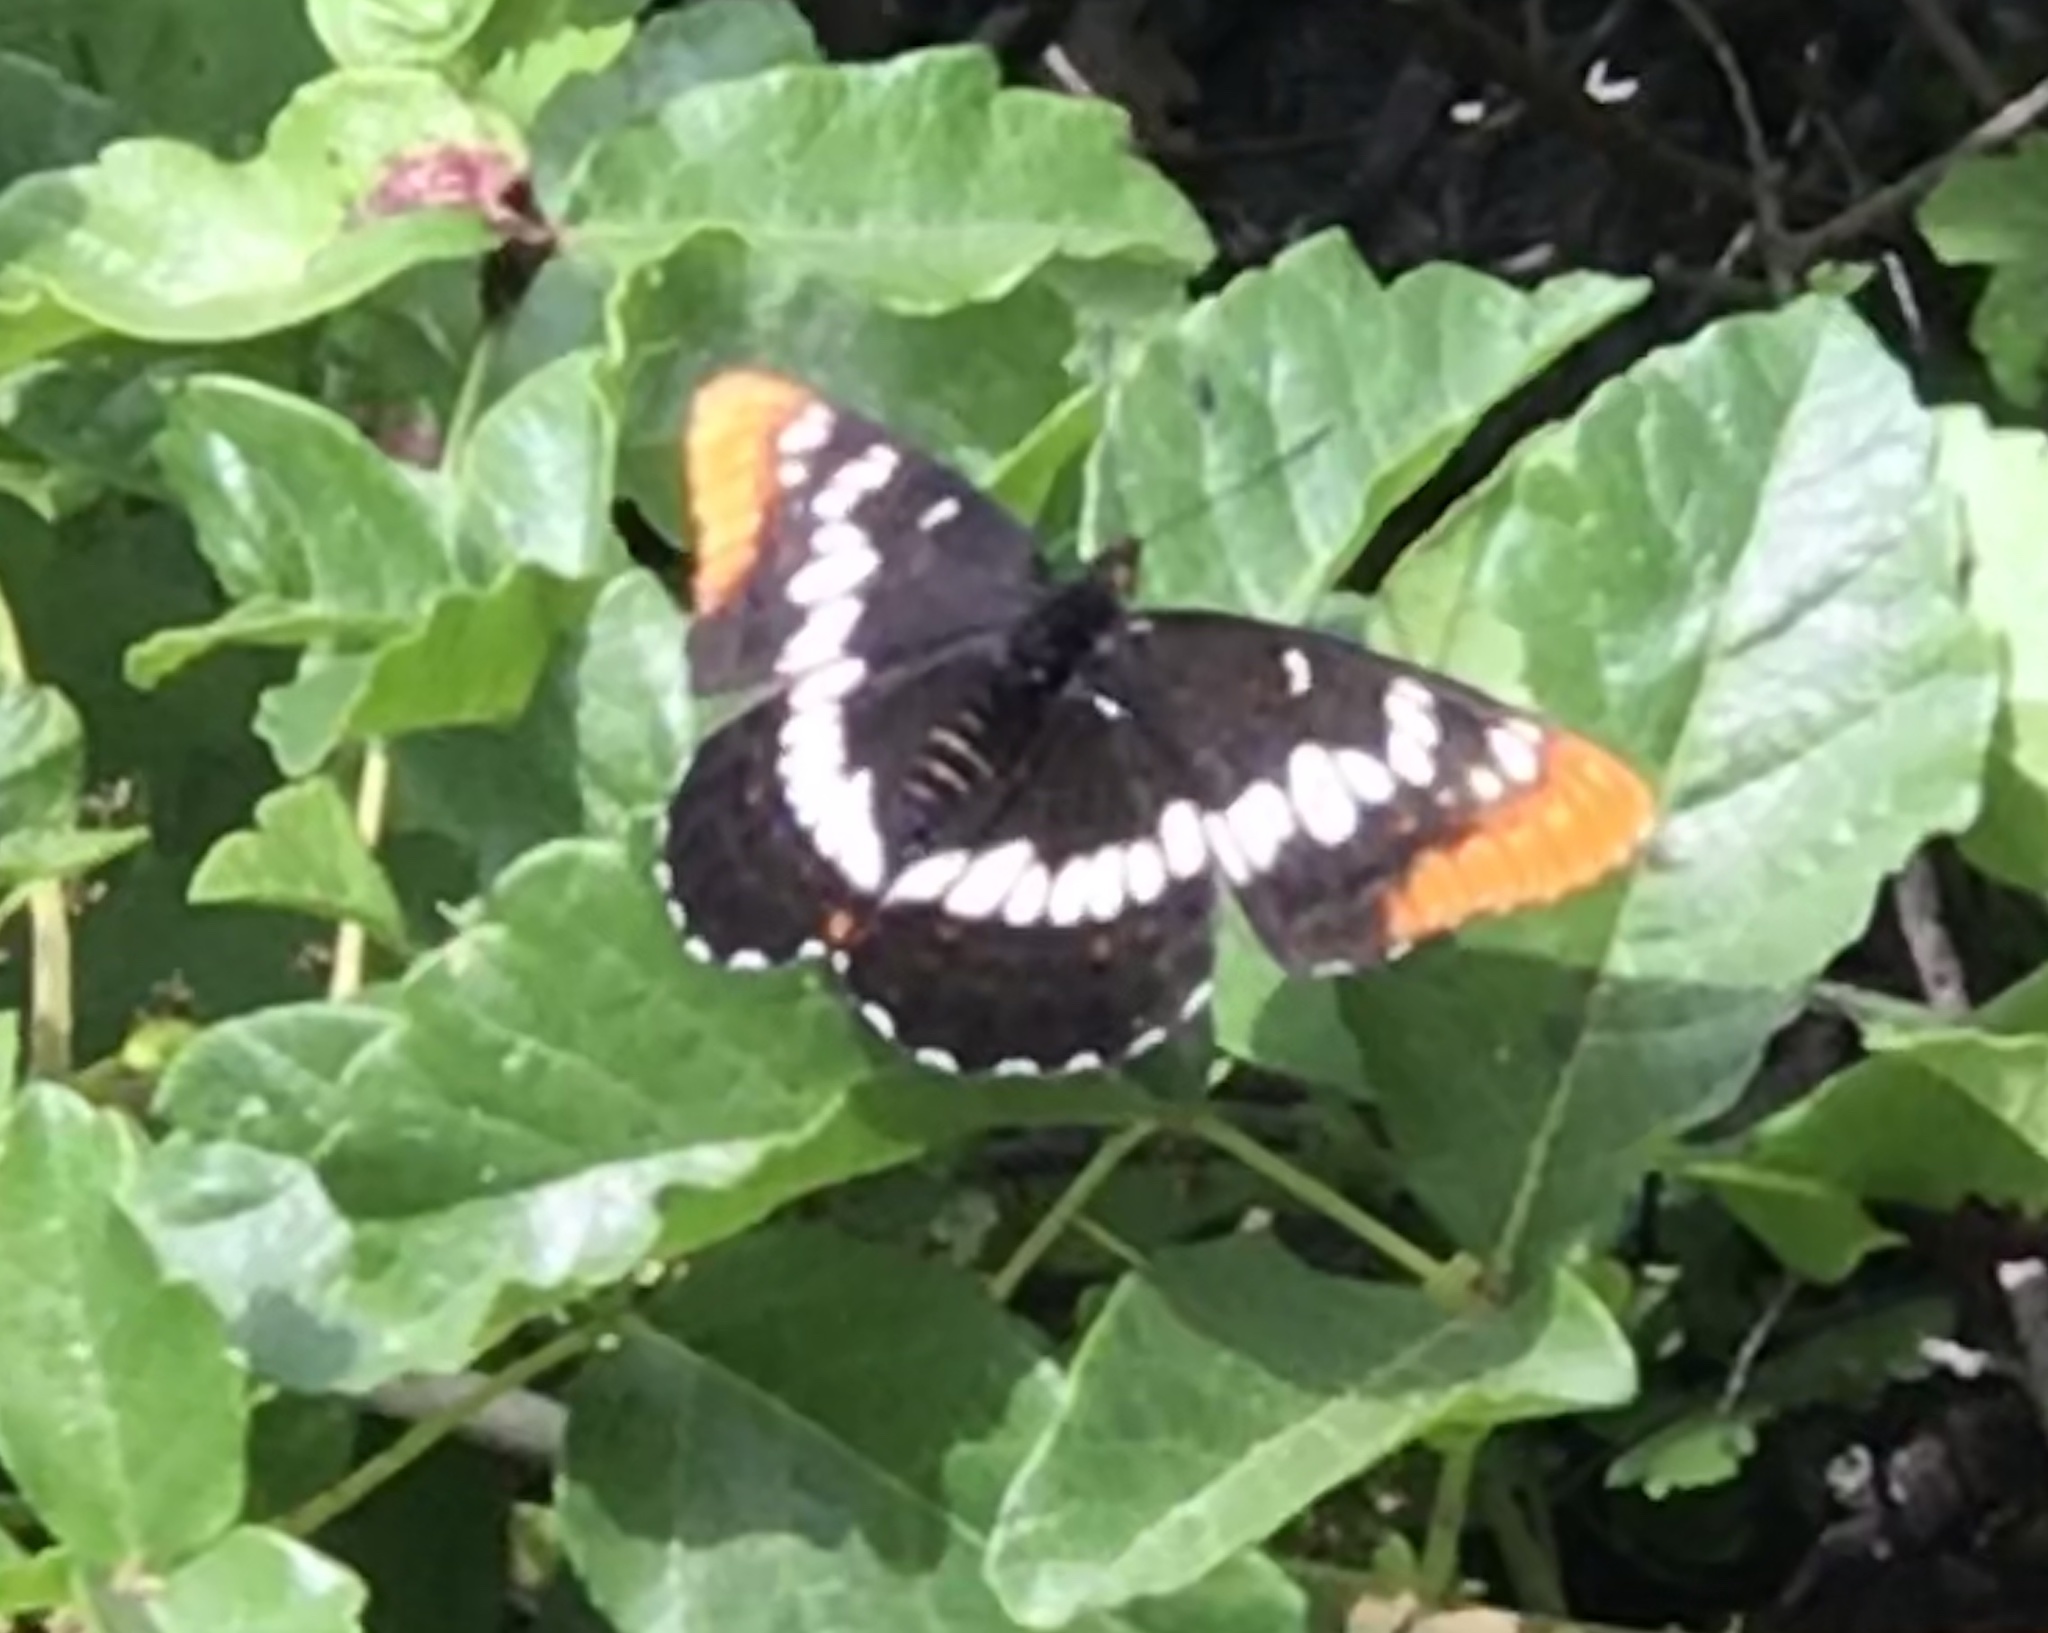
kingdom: Animalia
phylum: Arthropoda
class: Insecta
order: Lepidoptera
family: Nymphalidae
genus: Limenitis
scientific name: Limenitis lorquini
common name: Lorquin's admiral
